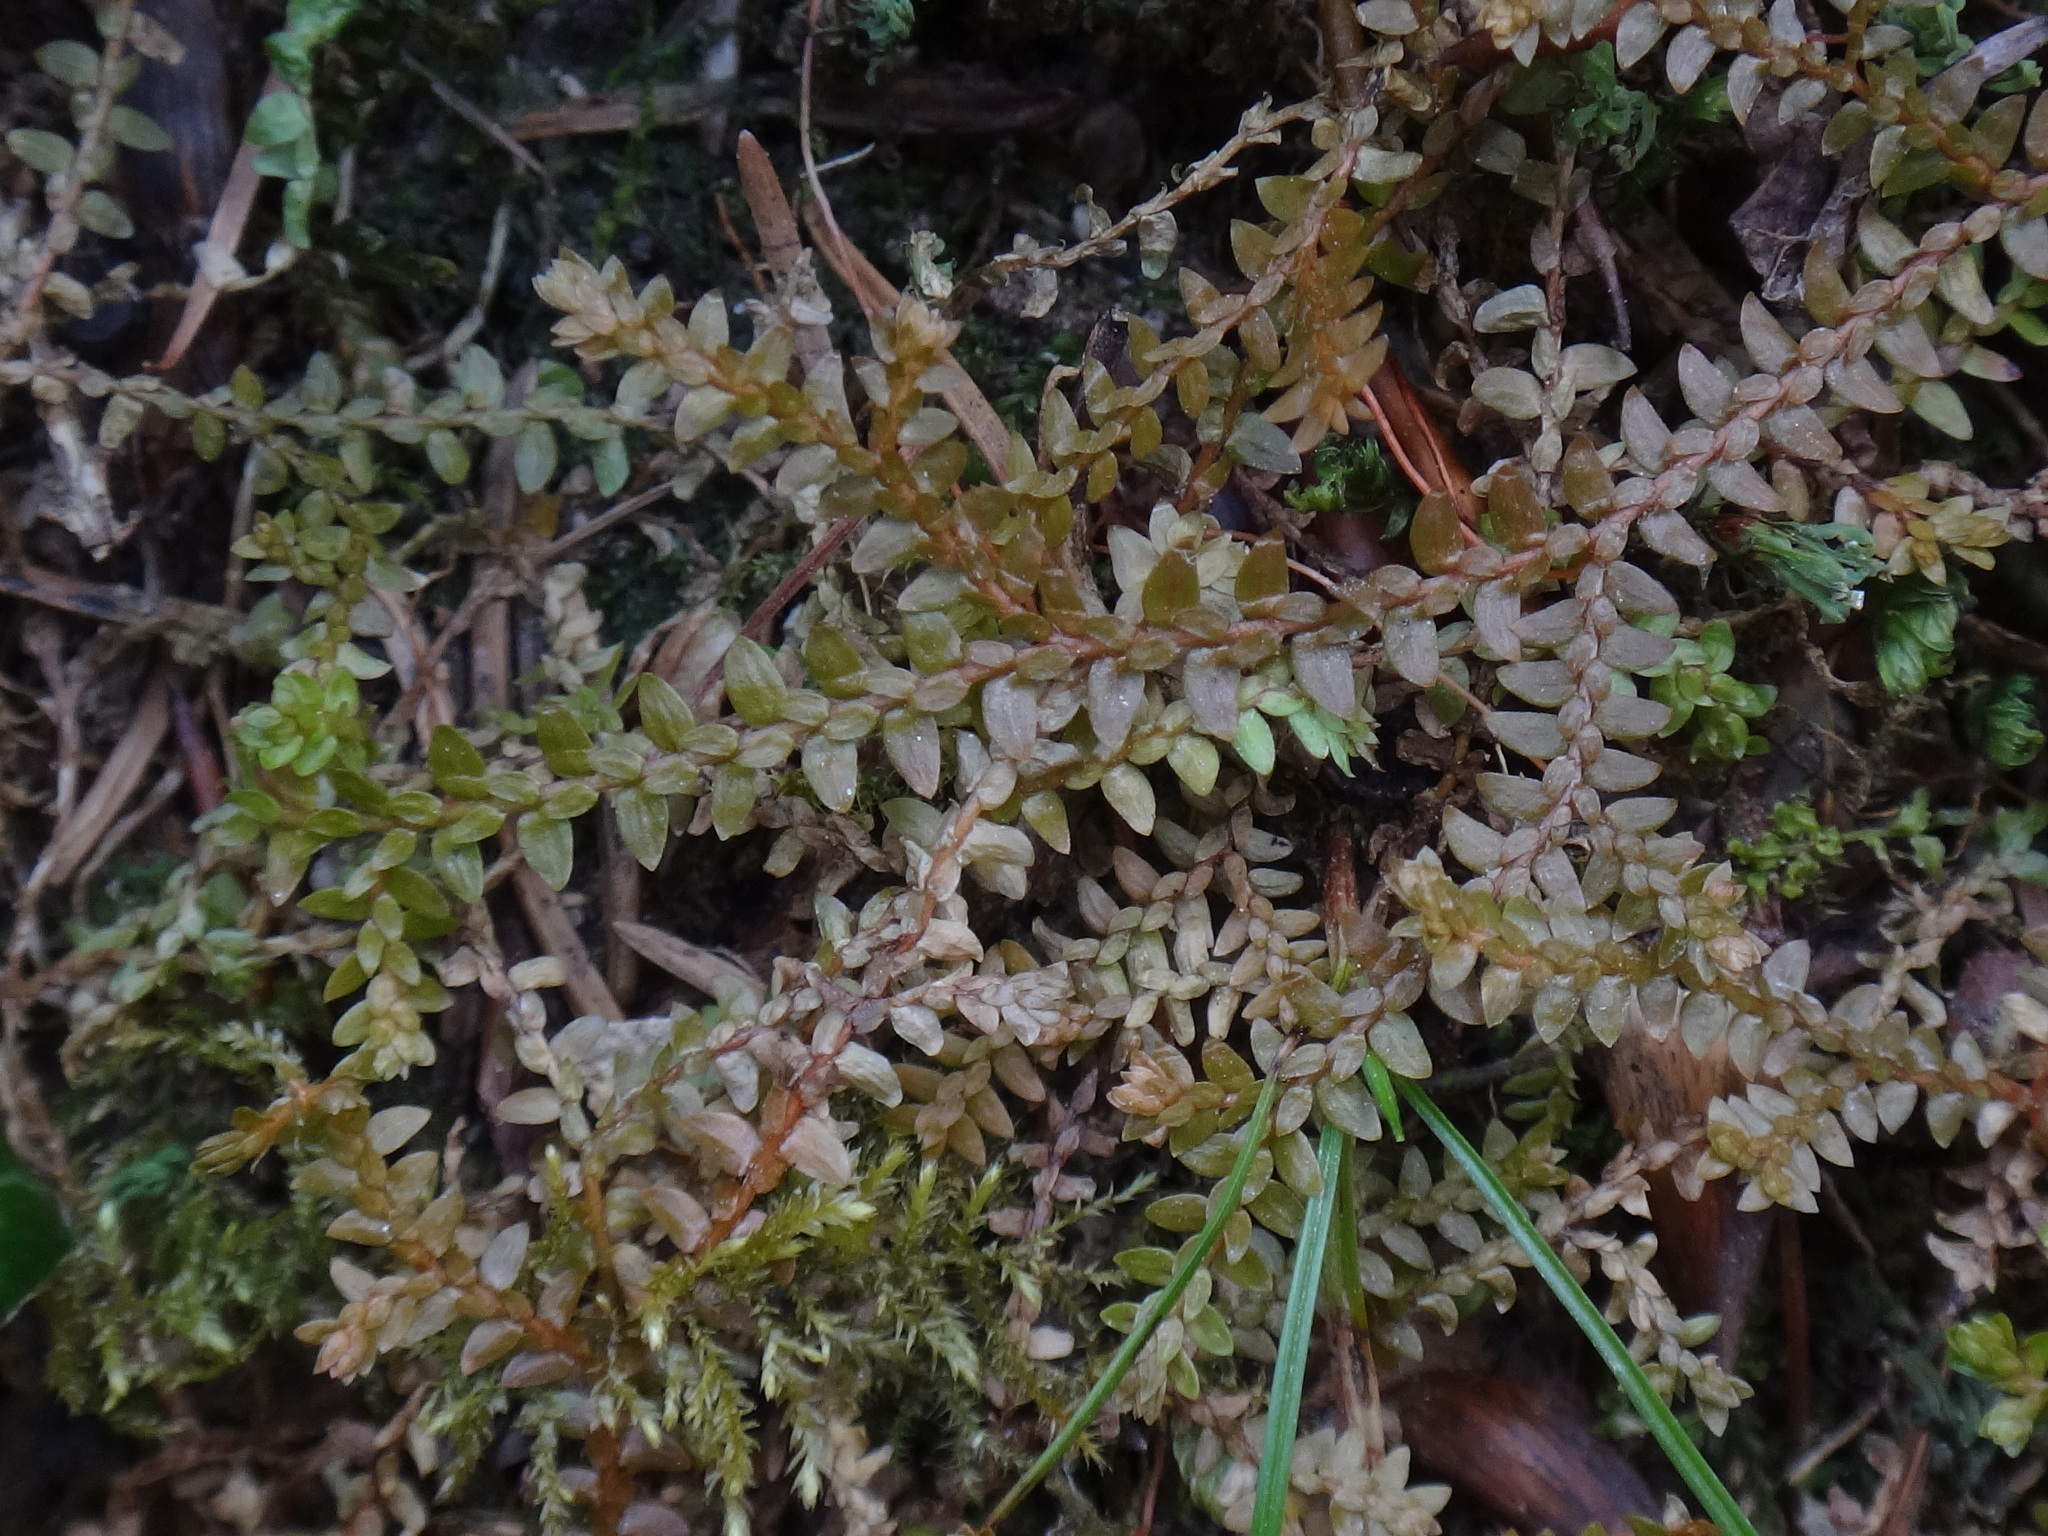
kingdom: Plantae
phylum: Tracheophyta
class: Lycopodiopsida
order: Selaginellales
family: Selaginellaceae
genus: Selaginella
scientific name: Selaginella helvetica
